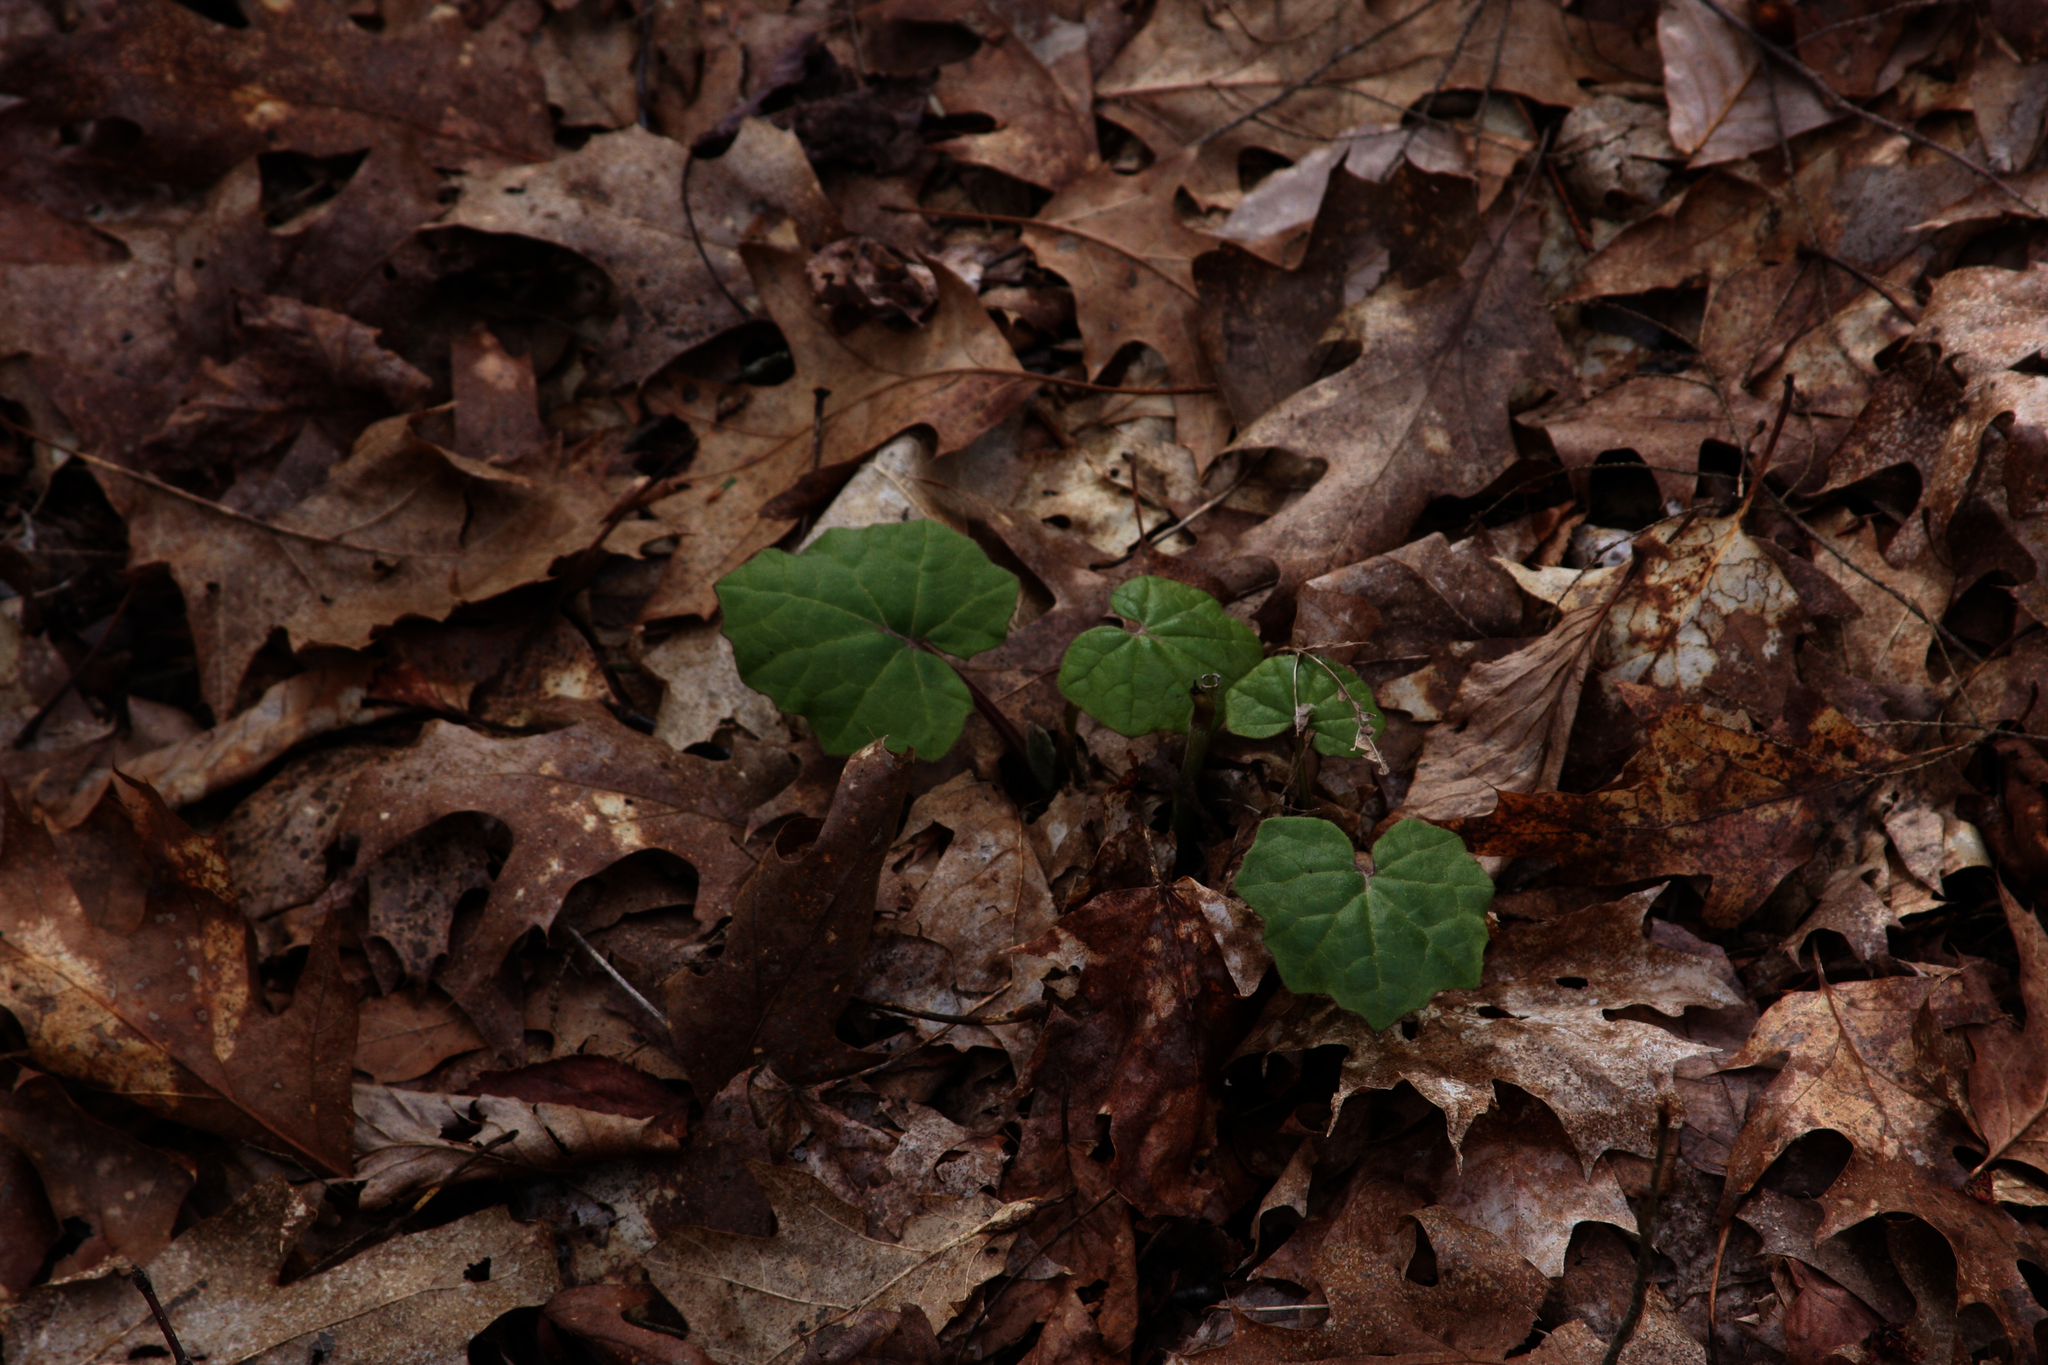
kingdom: Plantae
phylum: Tracheophyta
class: Magnoliopsida
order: Asterales
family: Asteraceae
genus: Tussilago
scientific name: Tussilago farfara
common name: Coltsfoot
